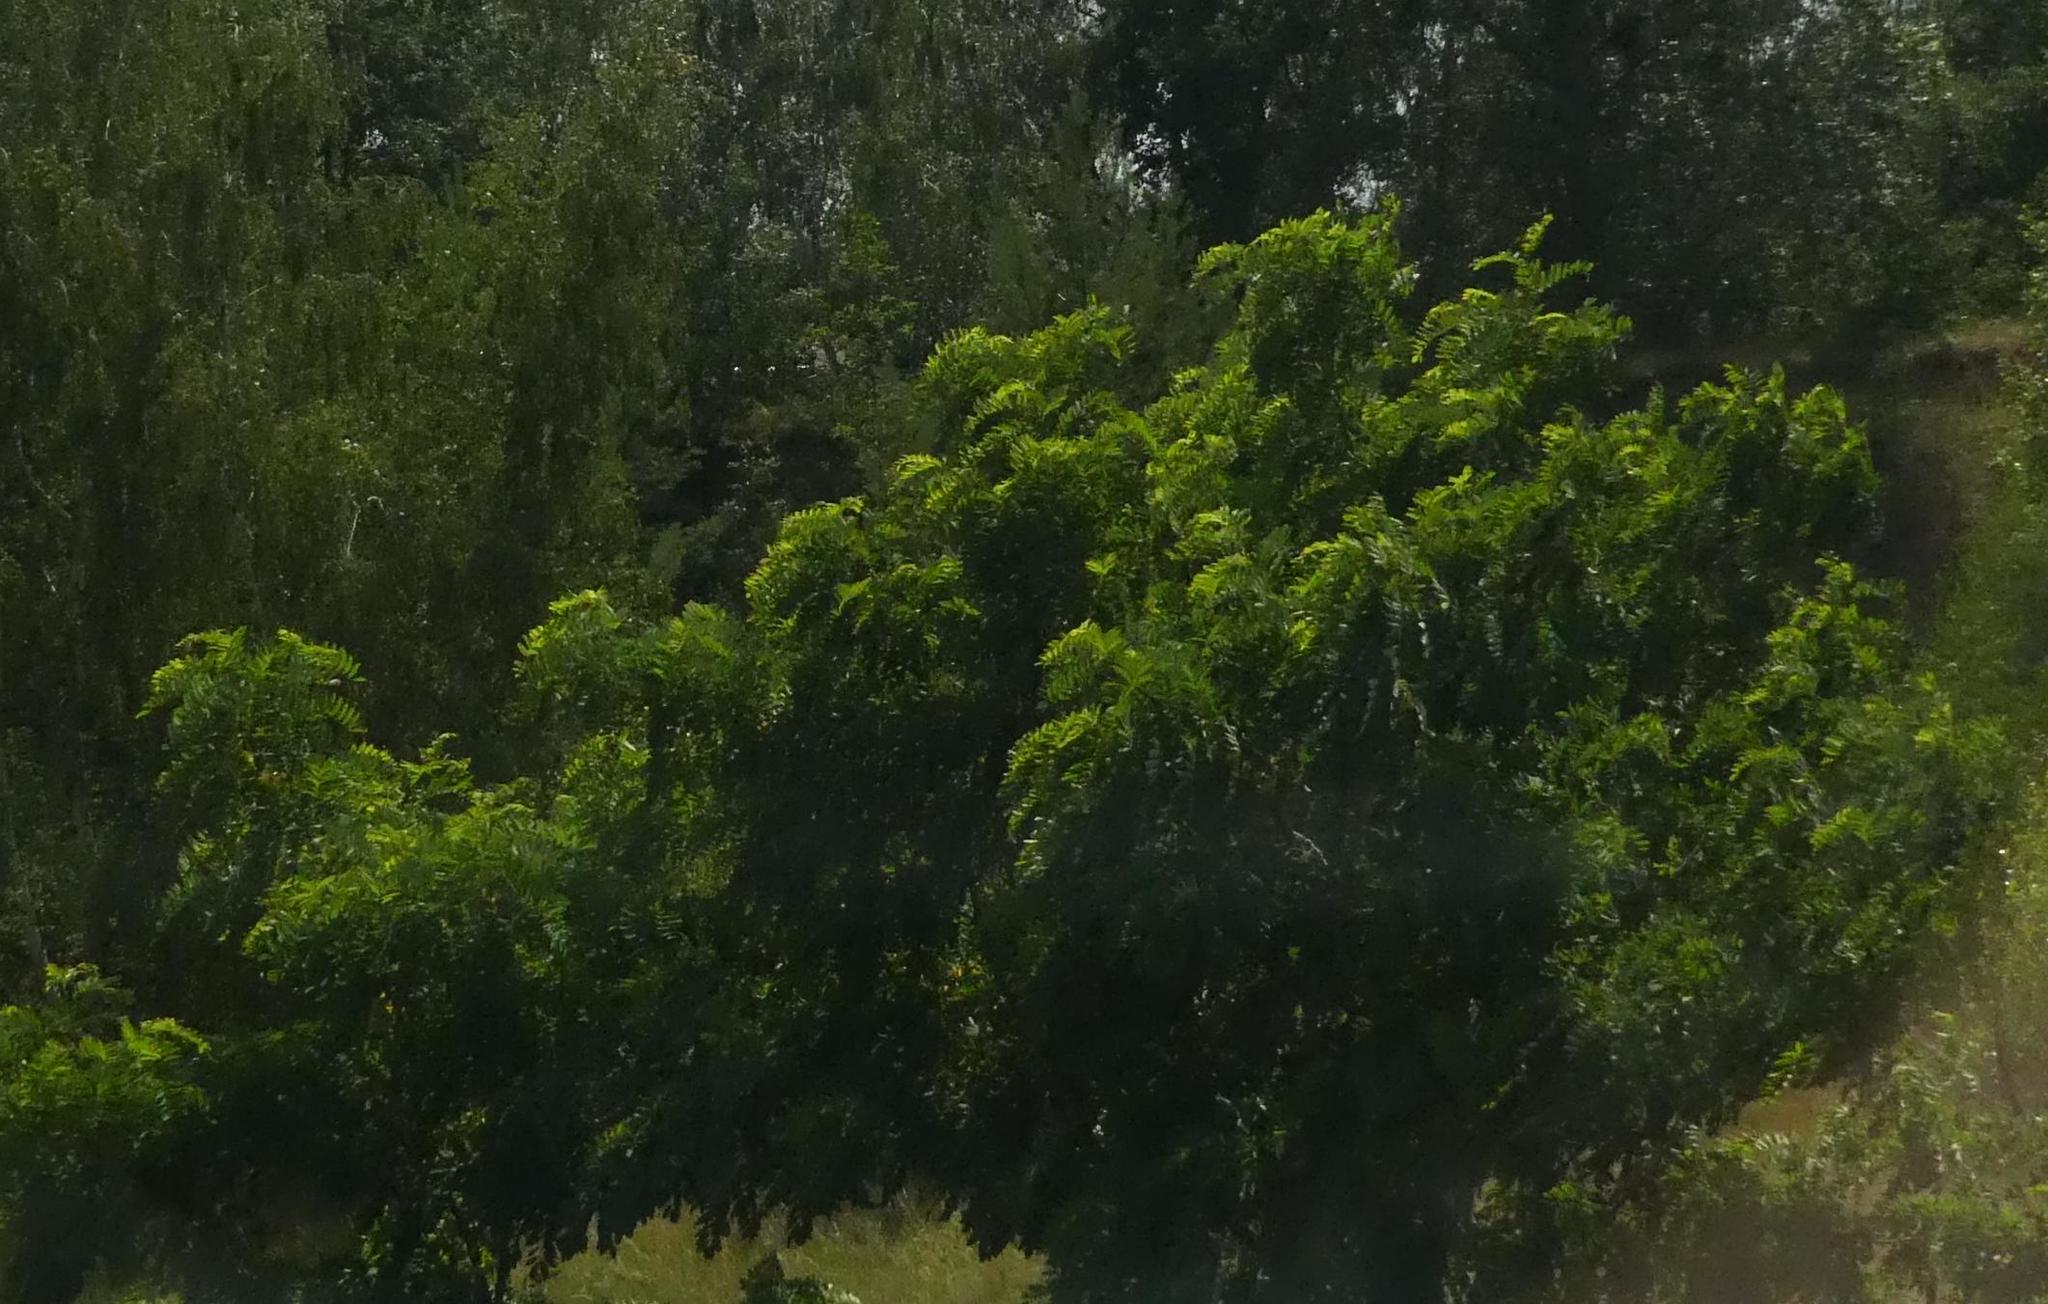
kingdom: Plantae
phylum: Tracheophyta
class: Magnoliopsida
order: Fabales
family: Fabaceae
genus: Robinia
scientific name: Robinia pseudoacacia
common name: Black locust
